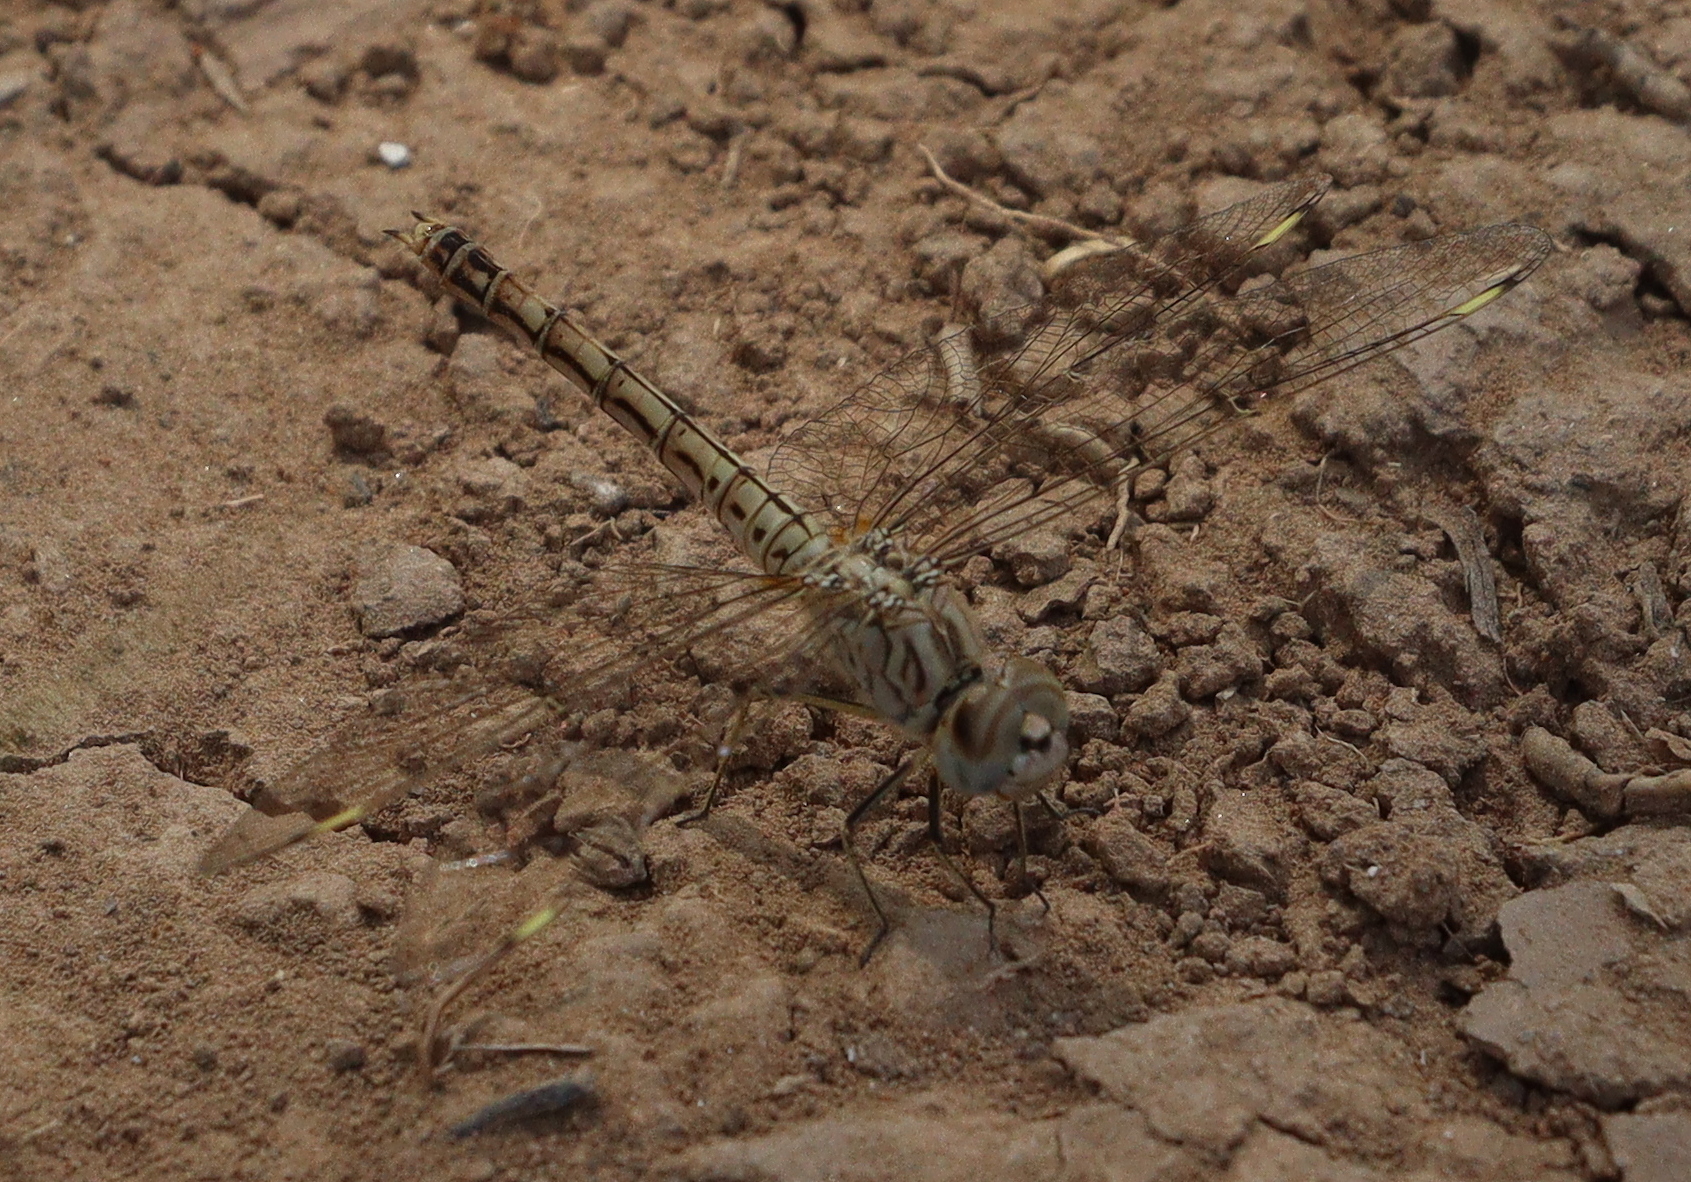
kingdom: Animalia
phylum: Arthropoda
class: Insecta
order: Odonata
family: Libellulidae
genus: Brachythemis
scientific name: Brachythemis impartita
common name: Banded groundling
